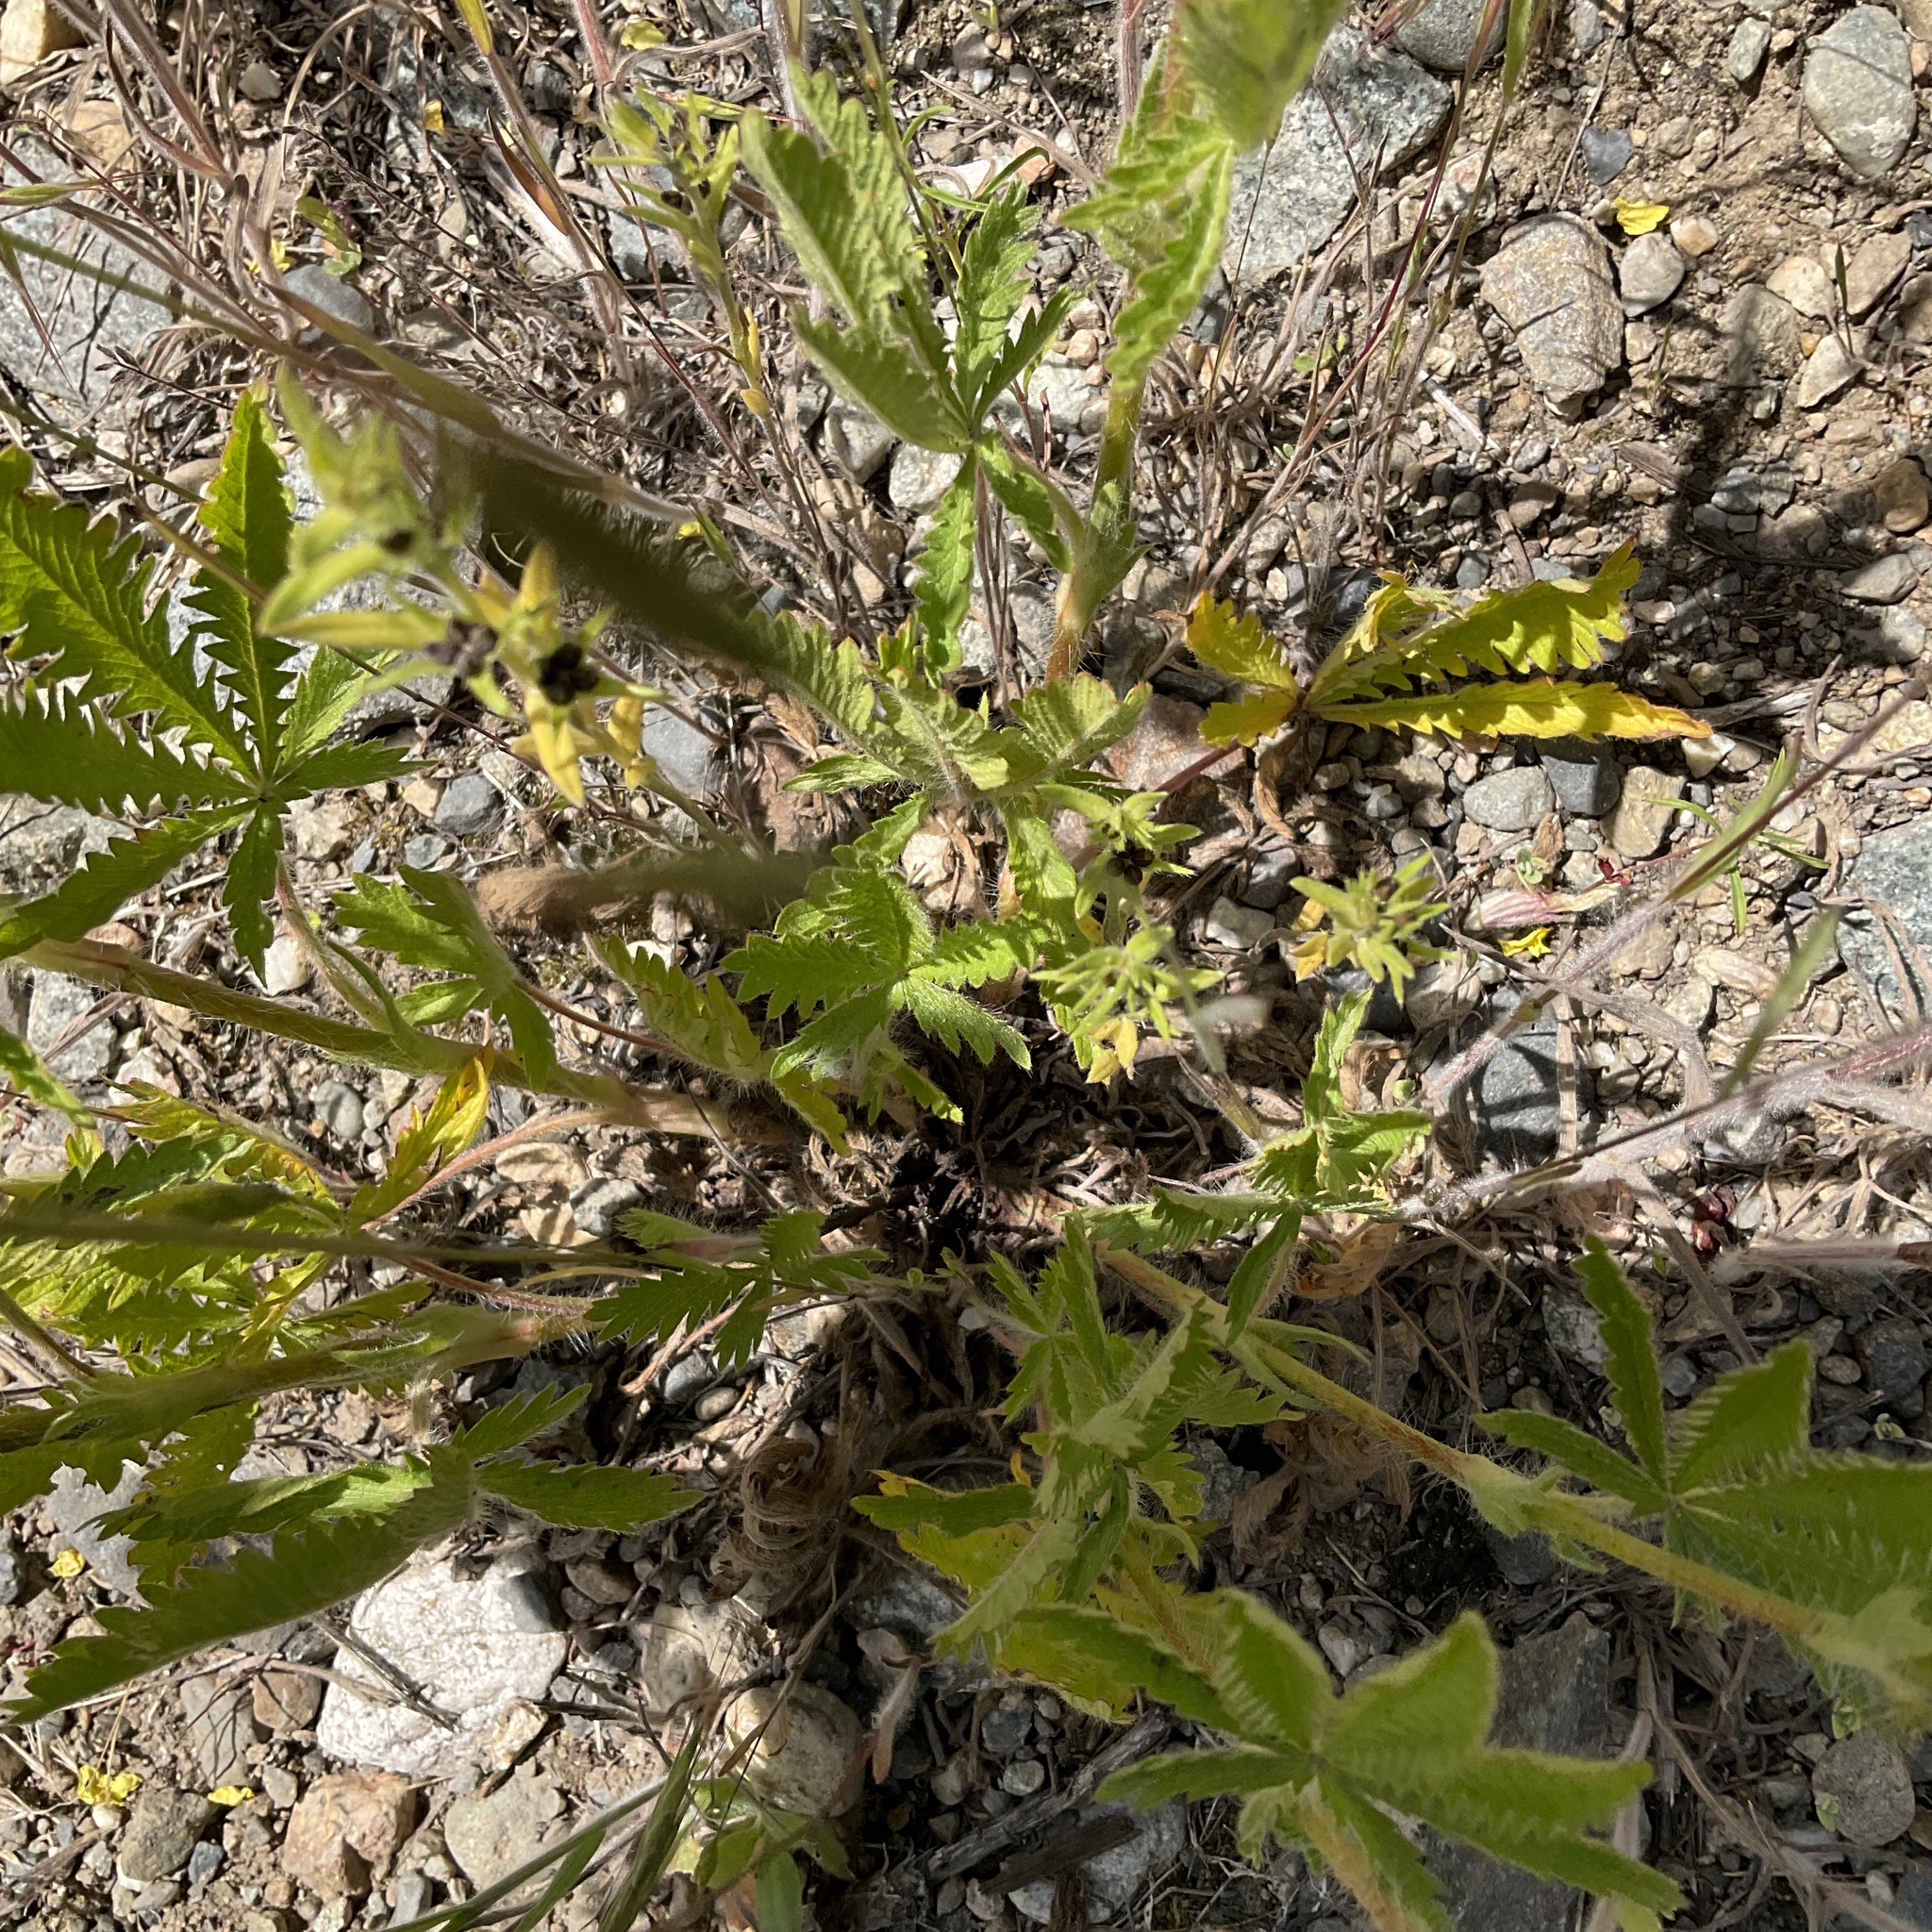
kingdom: Plantae
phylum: Tracheophyta
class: Magnoliopsida
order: Rosales
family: Rosaceae
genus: Potentilla
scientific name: Potentilla recta
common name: Sulphur cinquefoil
